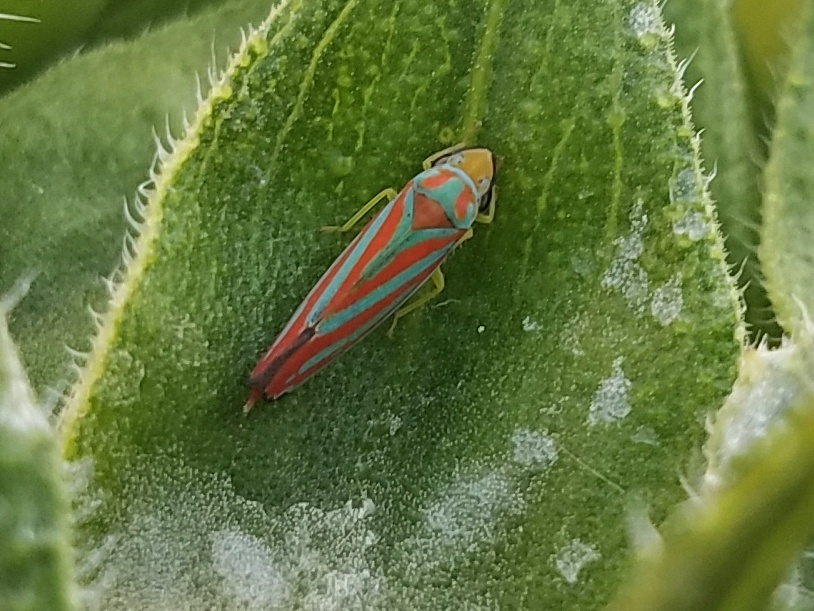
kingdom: Animalia
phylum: Arthropoda
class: Insecta
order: Hemiptera
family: Cicadellidae
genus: Graphocephala
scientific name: Graphocephala coccinea
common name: Candy-striped leafhopper
